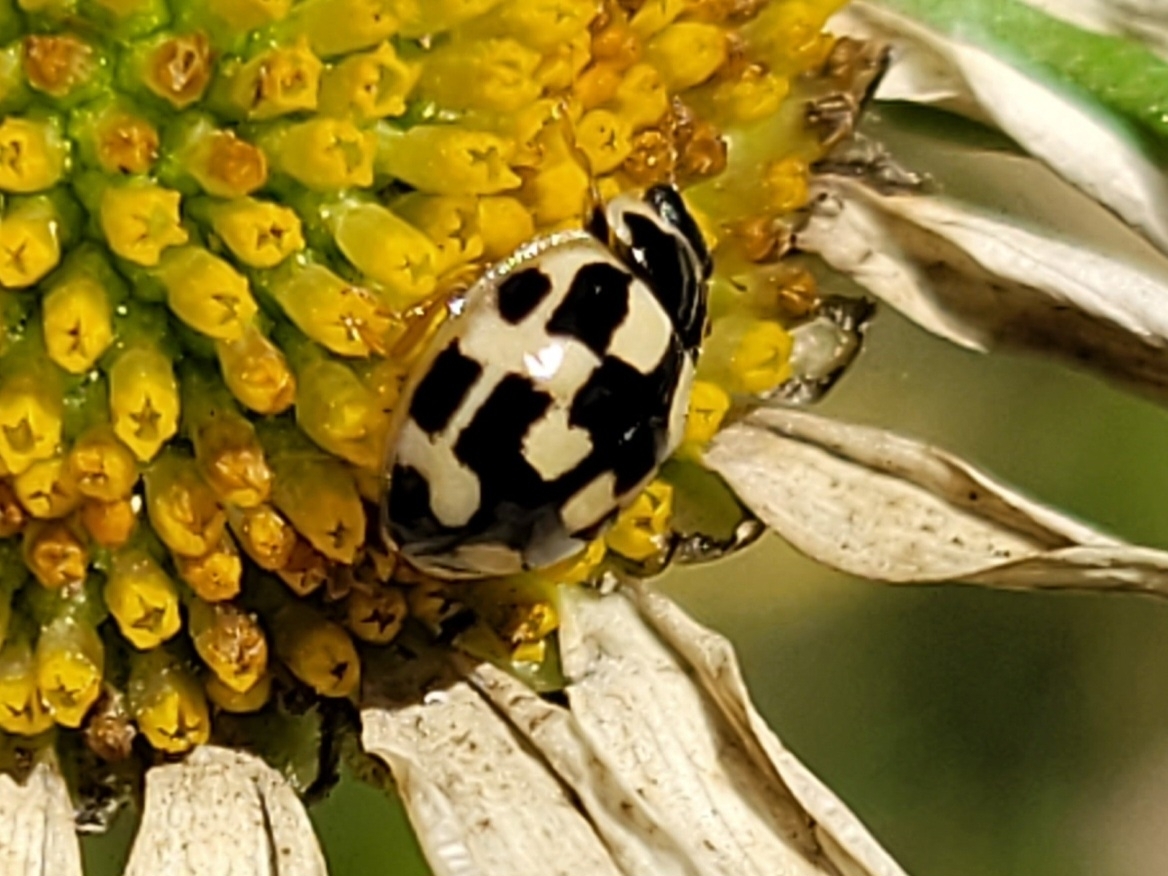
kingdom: Animalia
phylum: Arthropoda
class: Insecta
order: Coleoptera
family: Coccinellidae
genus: Propylaea
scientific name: Propylaea quatuordecimpunctata
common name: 14-spotted ladybird beetle
